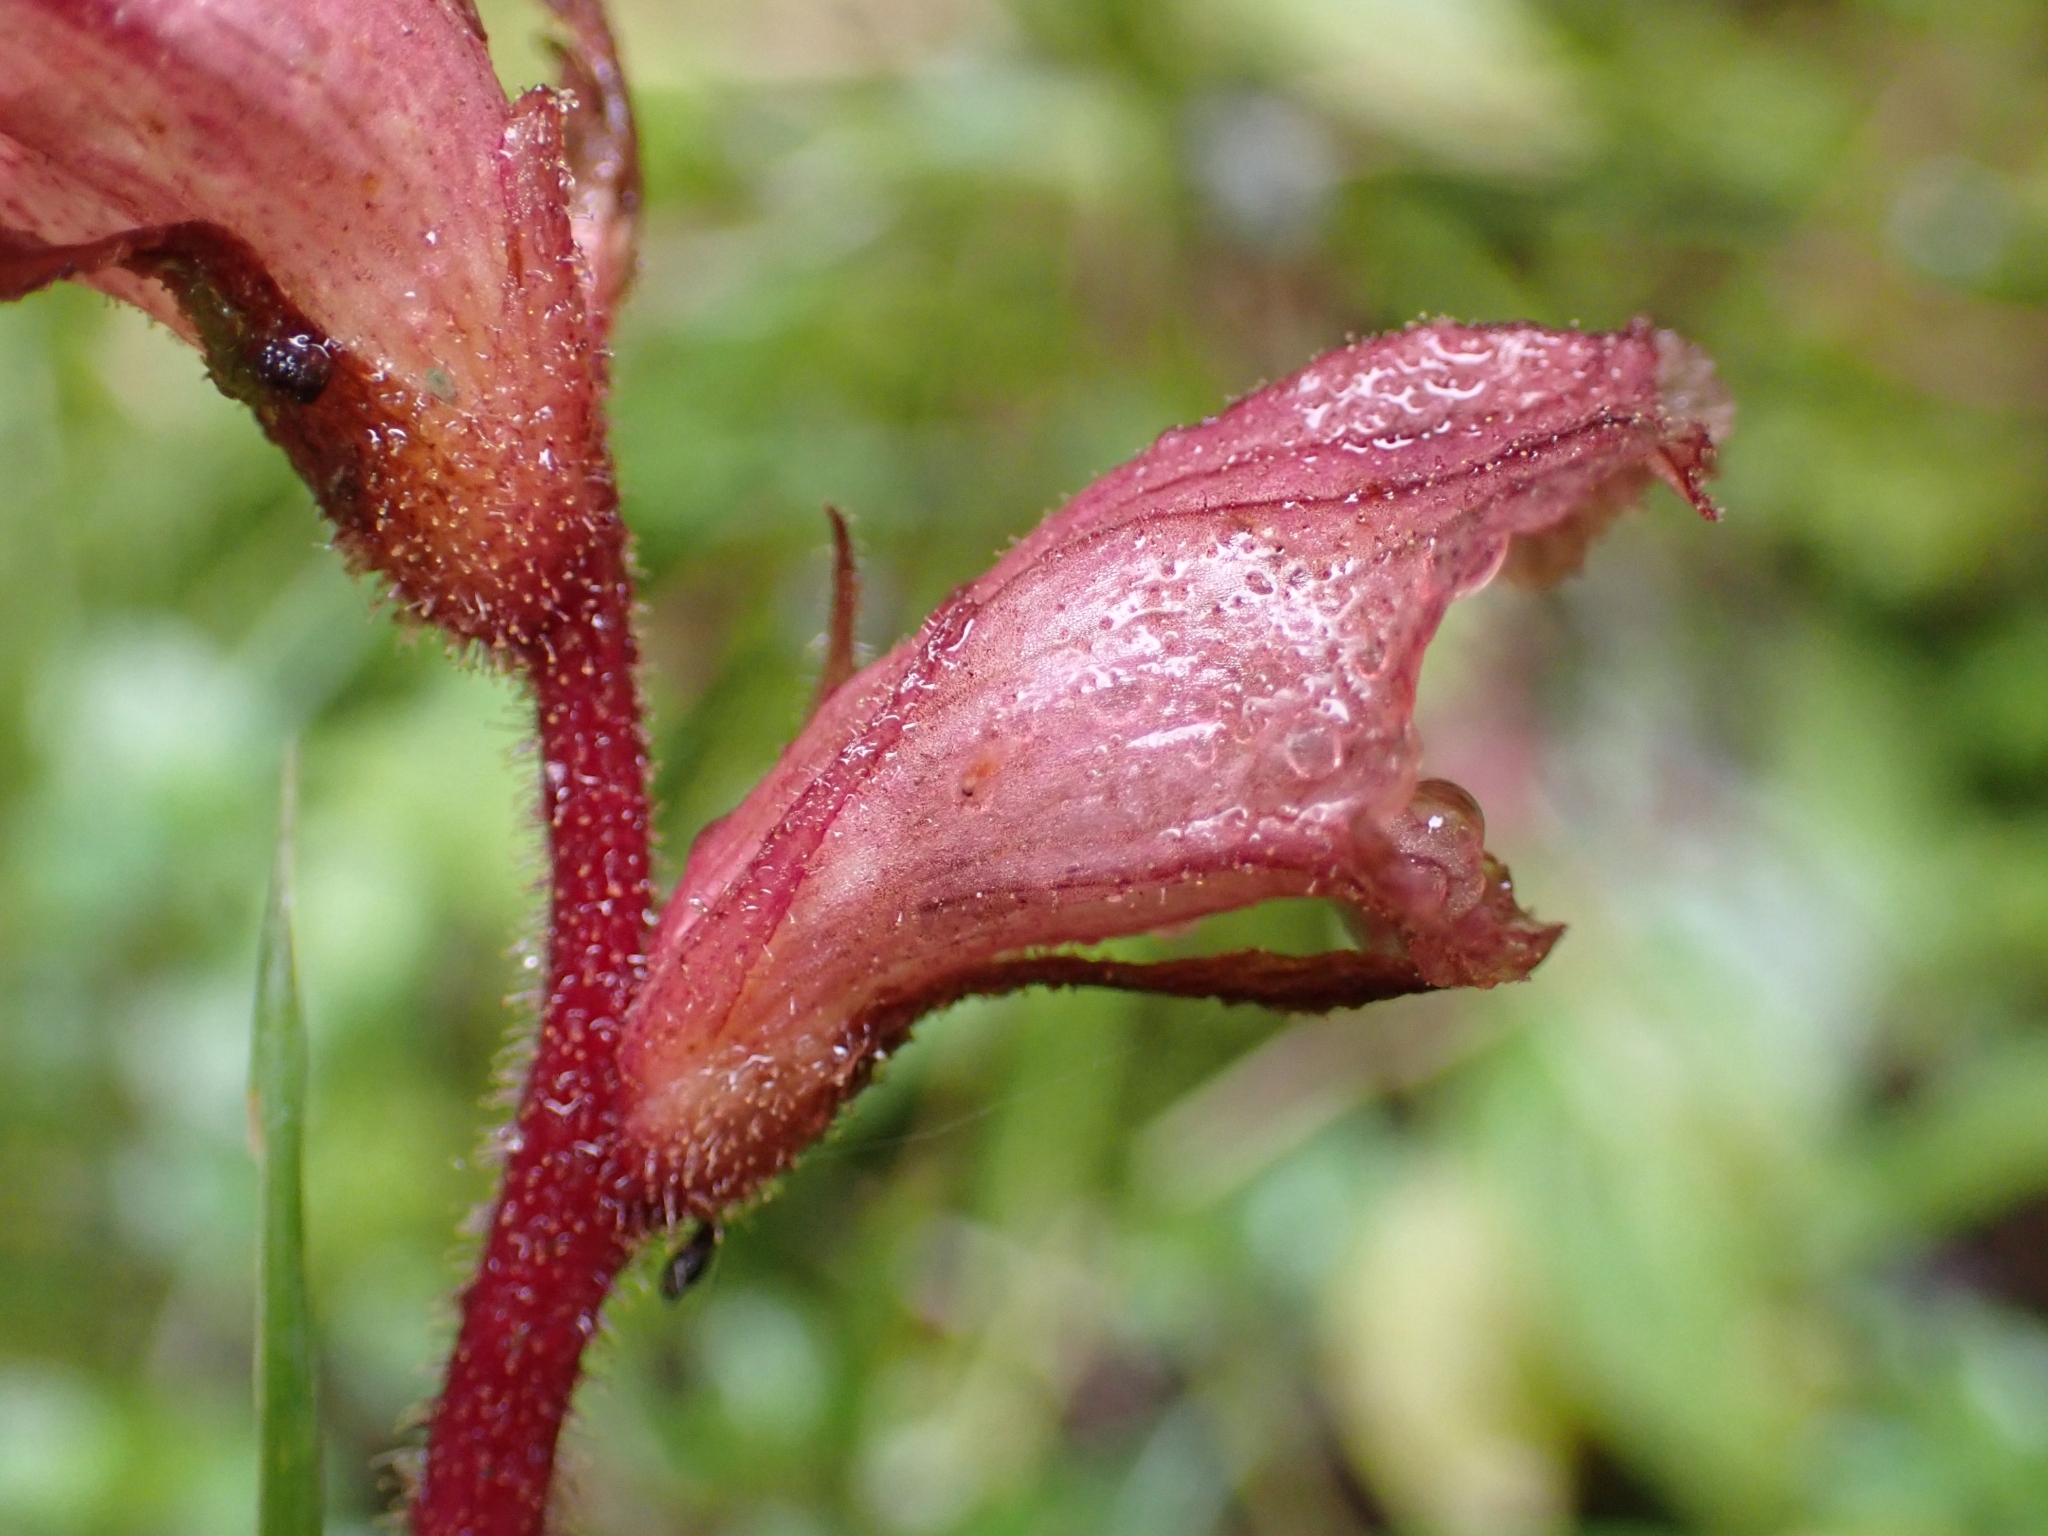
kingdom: Plantae
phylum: Tracheophyta
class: Magnoliopsida
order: Lamiales
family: Orobanchaceae
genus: Orobanche
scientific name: Orobanche alba
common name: Thyme broomrape
